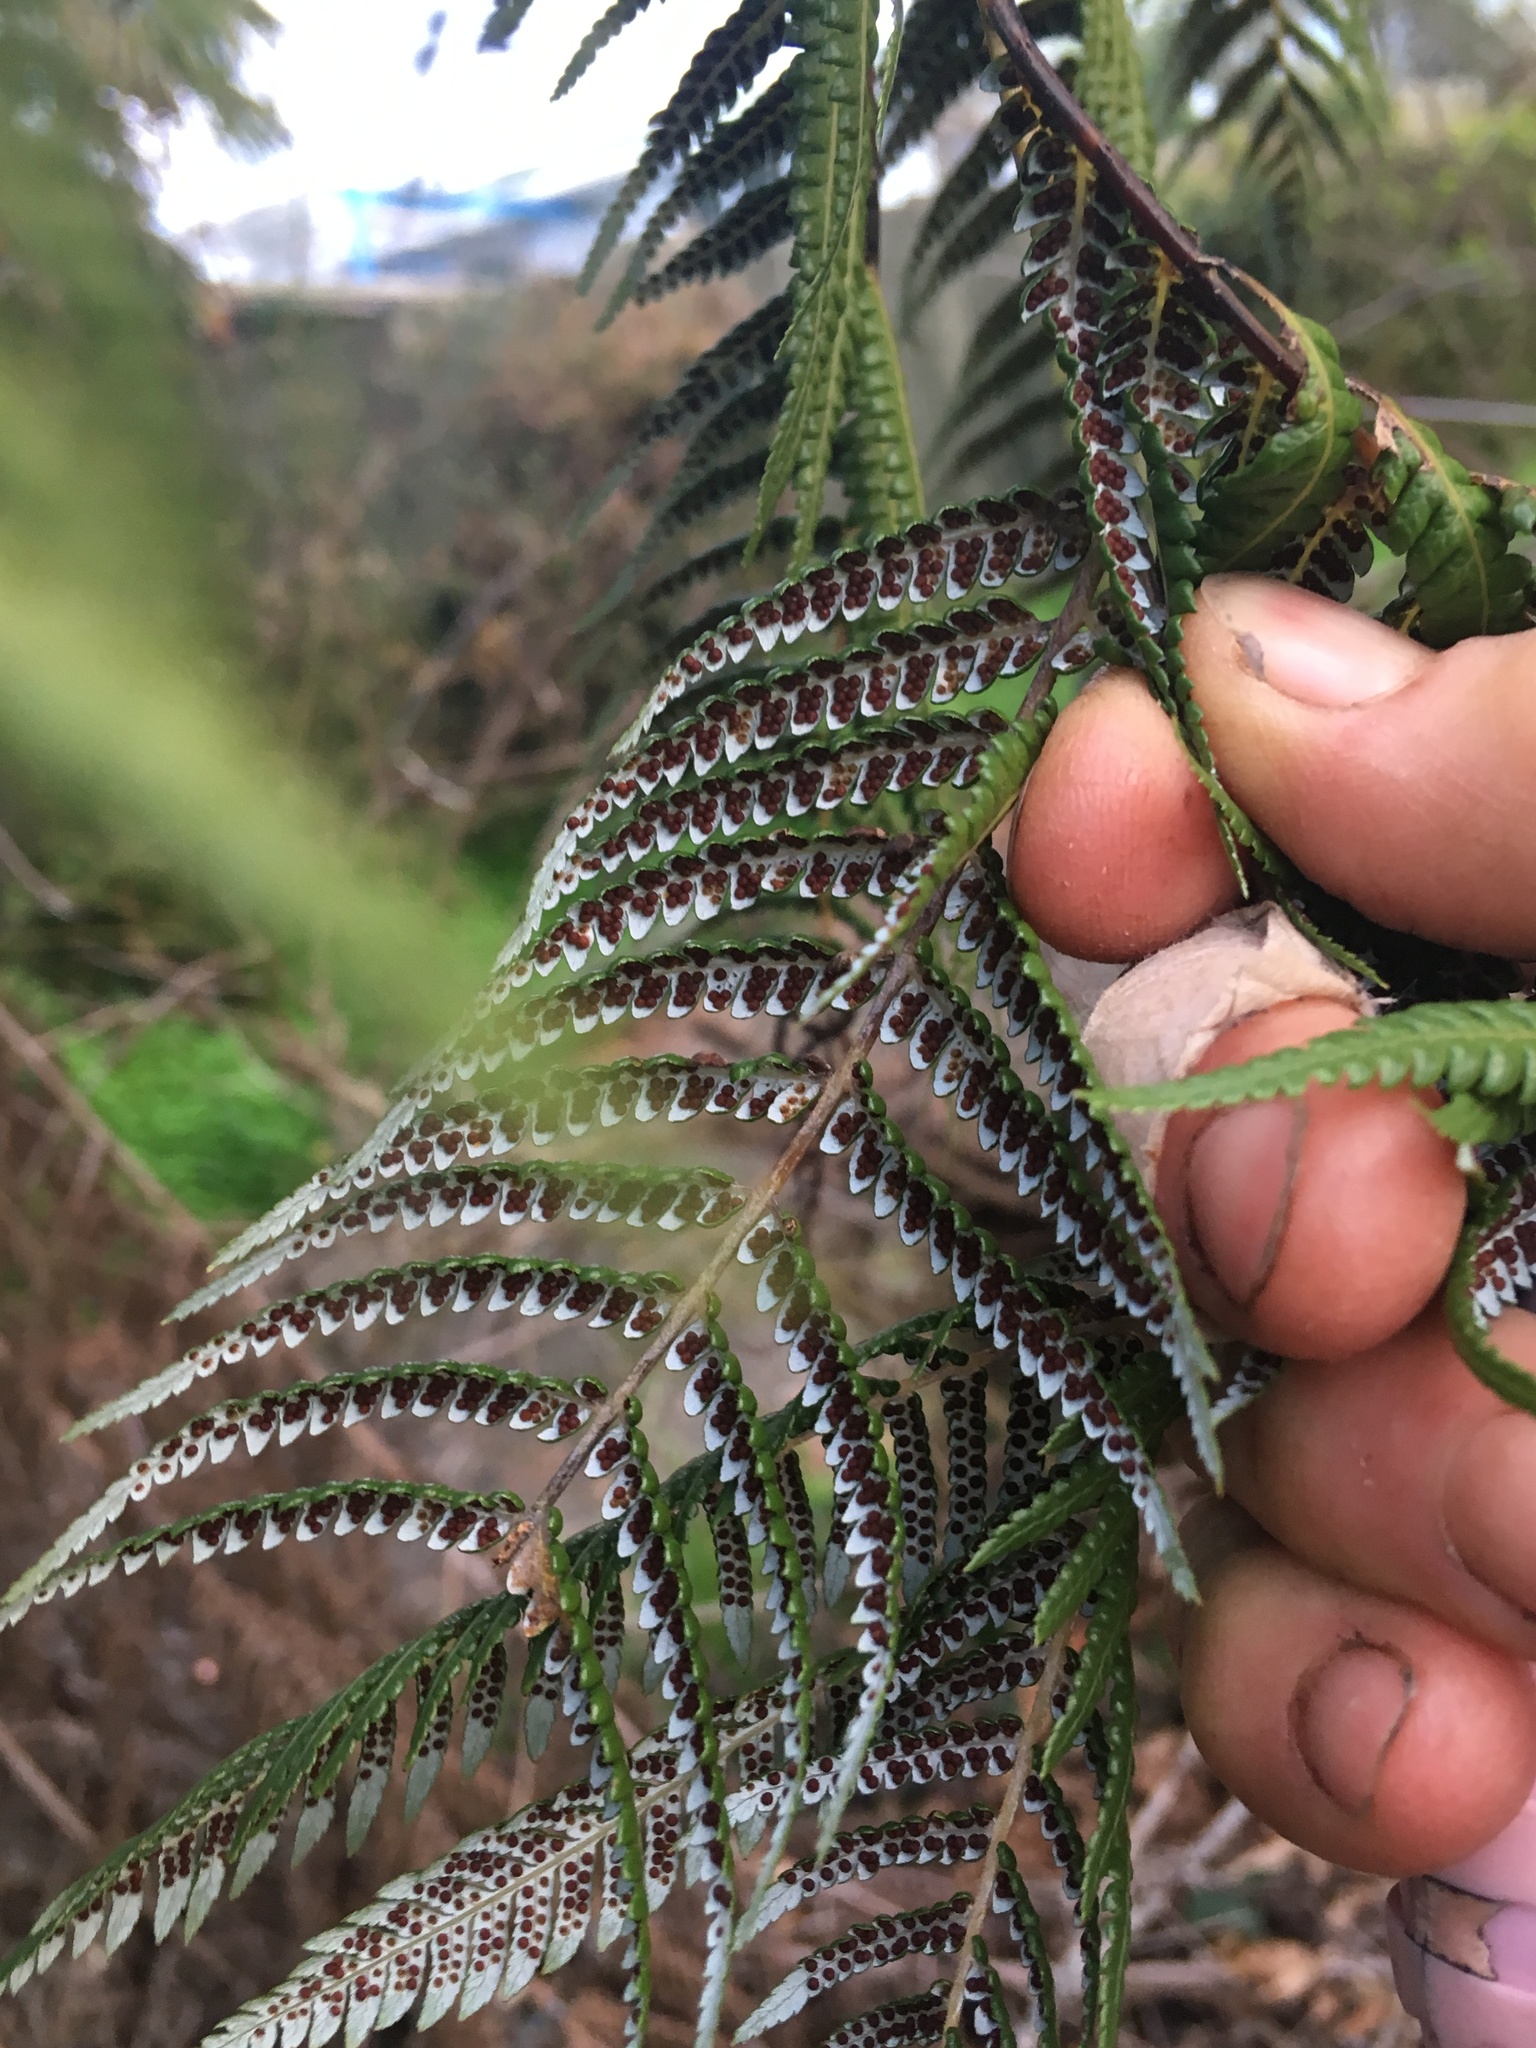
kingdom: Plantae
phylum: Tracheophyta
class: Polypodiopsida
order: Cyatheales
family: Cyatheaceae
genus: Alsophila
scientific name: Alsophila dealbata
